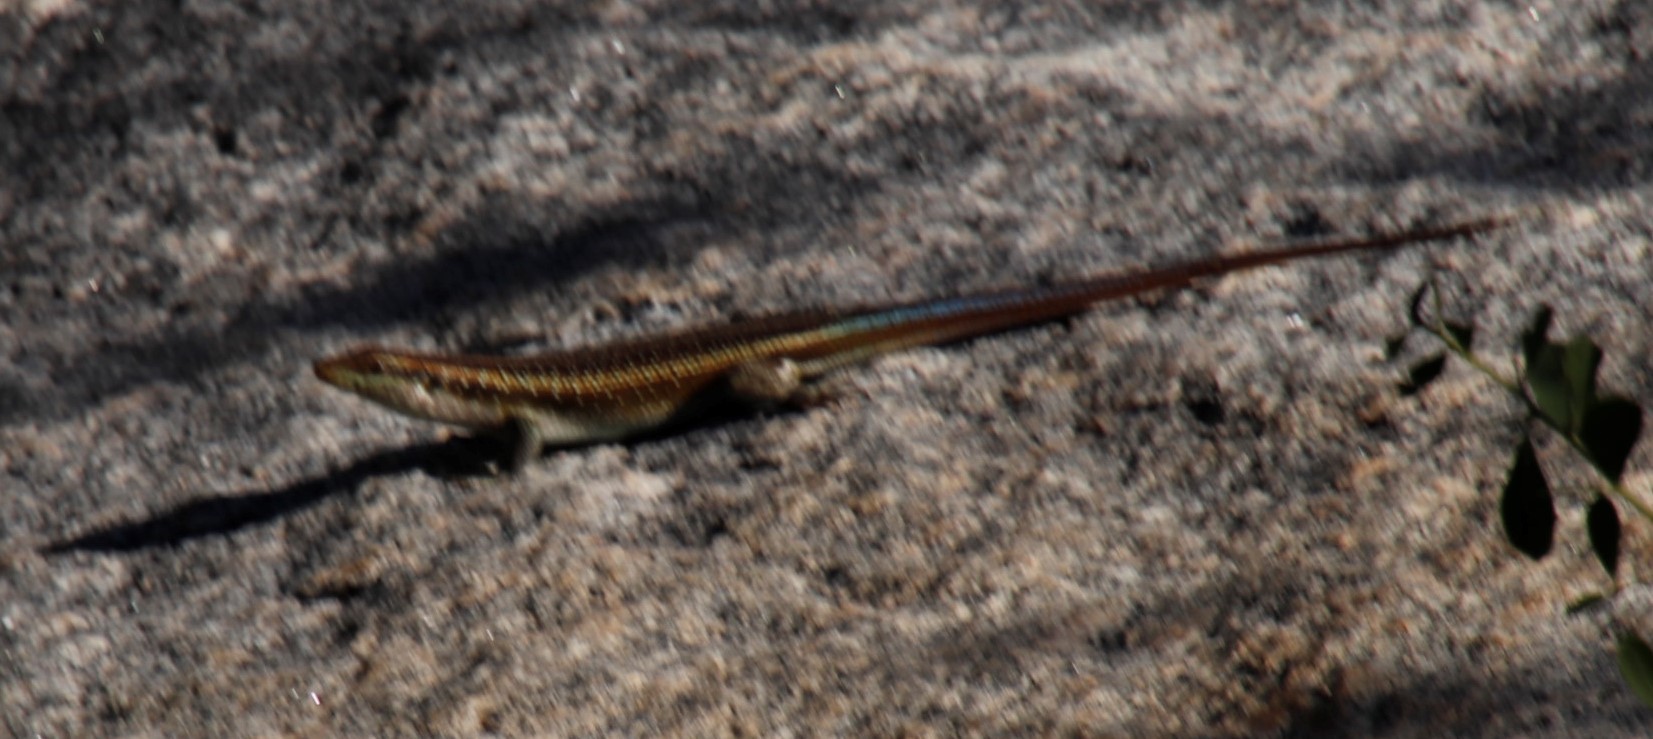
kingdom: Animalia
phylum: Chordata
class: Squamata
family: Scincidae
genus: Trachylepis
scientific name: Trachylepis margaritifera
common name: Rainbow skink
